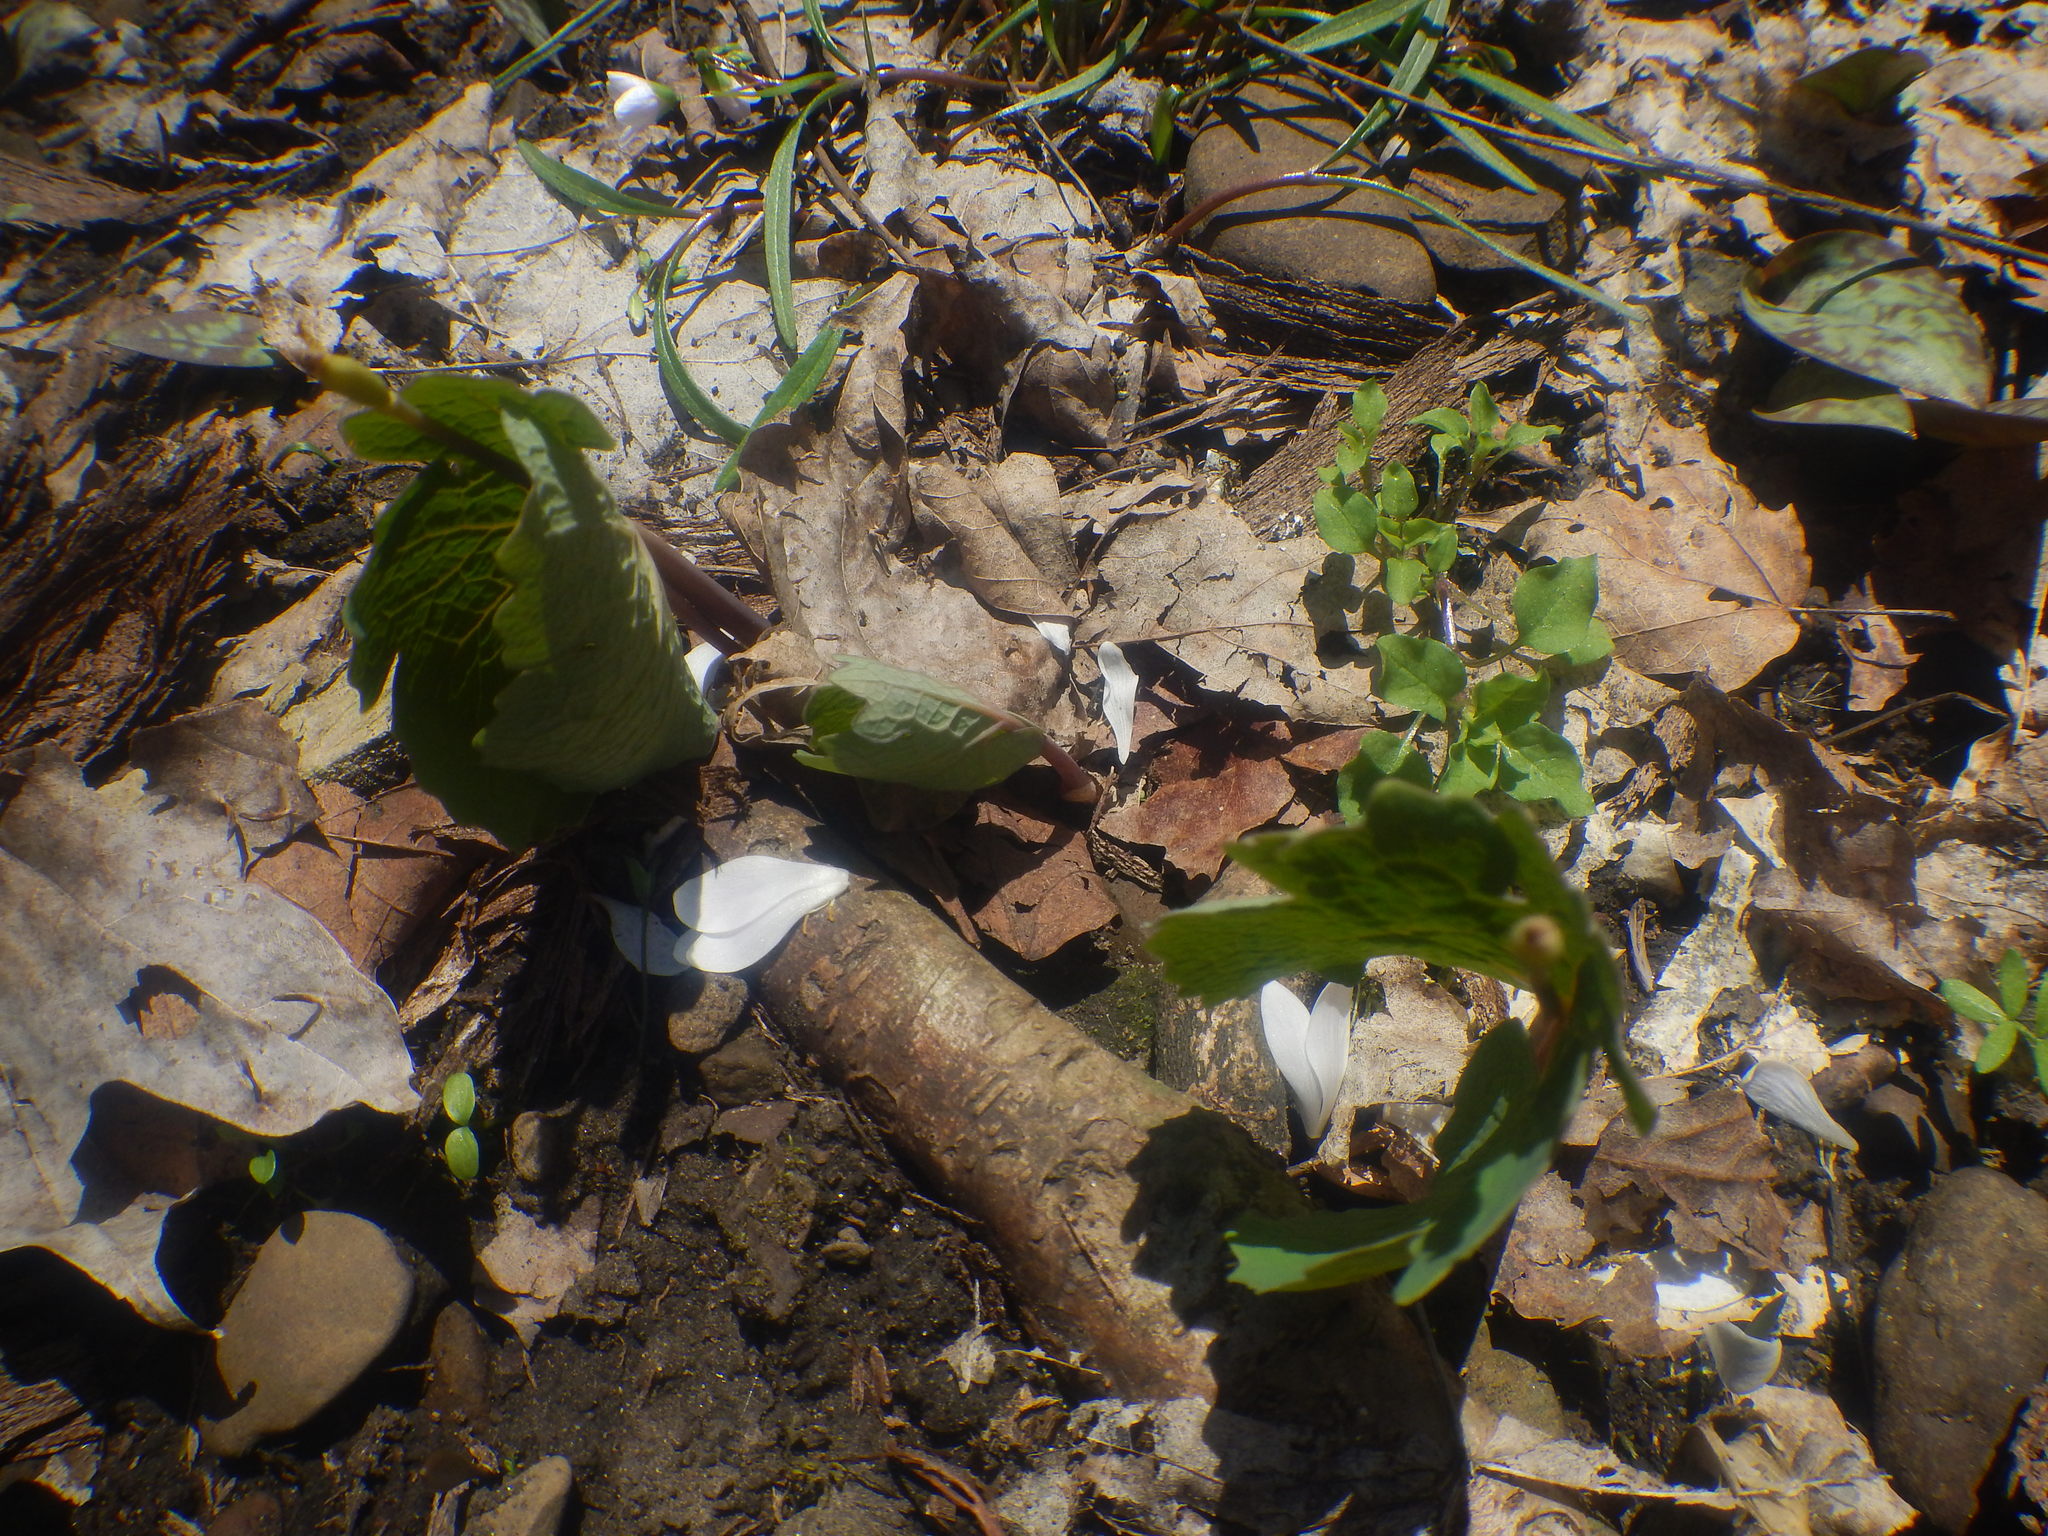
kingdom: Plantae
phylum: Tracheophyta
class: Magnoliopsida
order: Ranunculales
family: Papaveraceae
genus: Sanguinaria
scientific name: Sanguinaria canadensis
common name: Bloodroot
